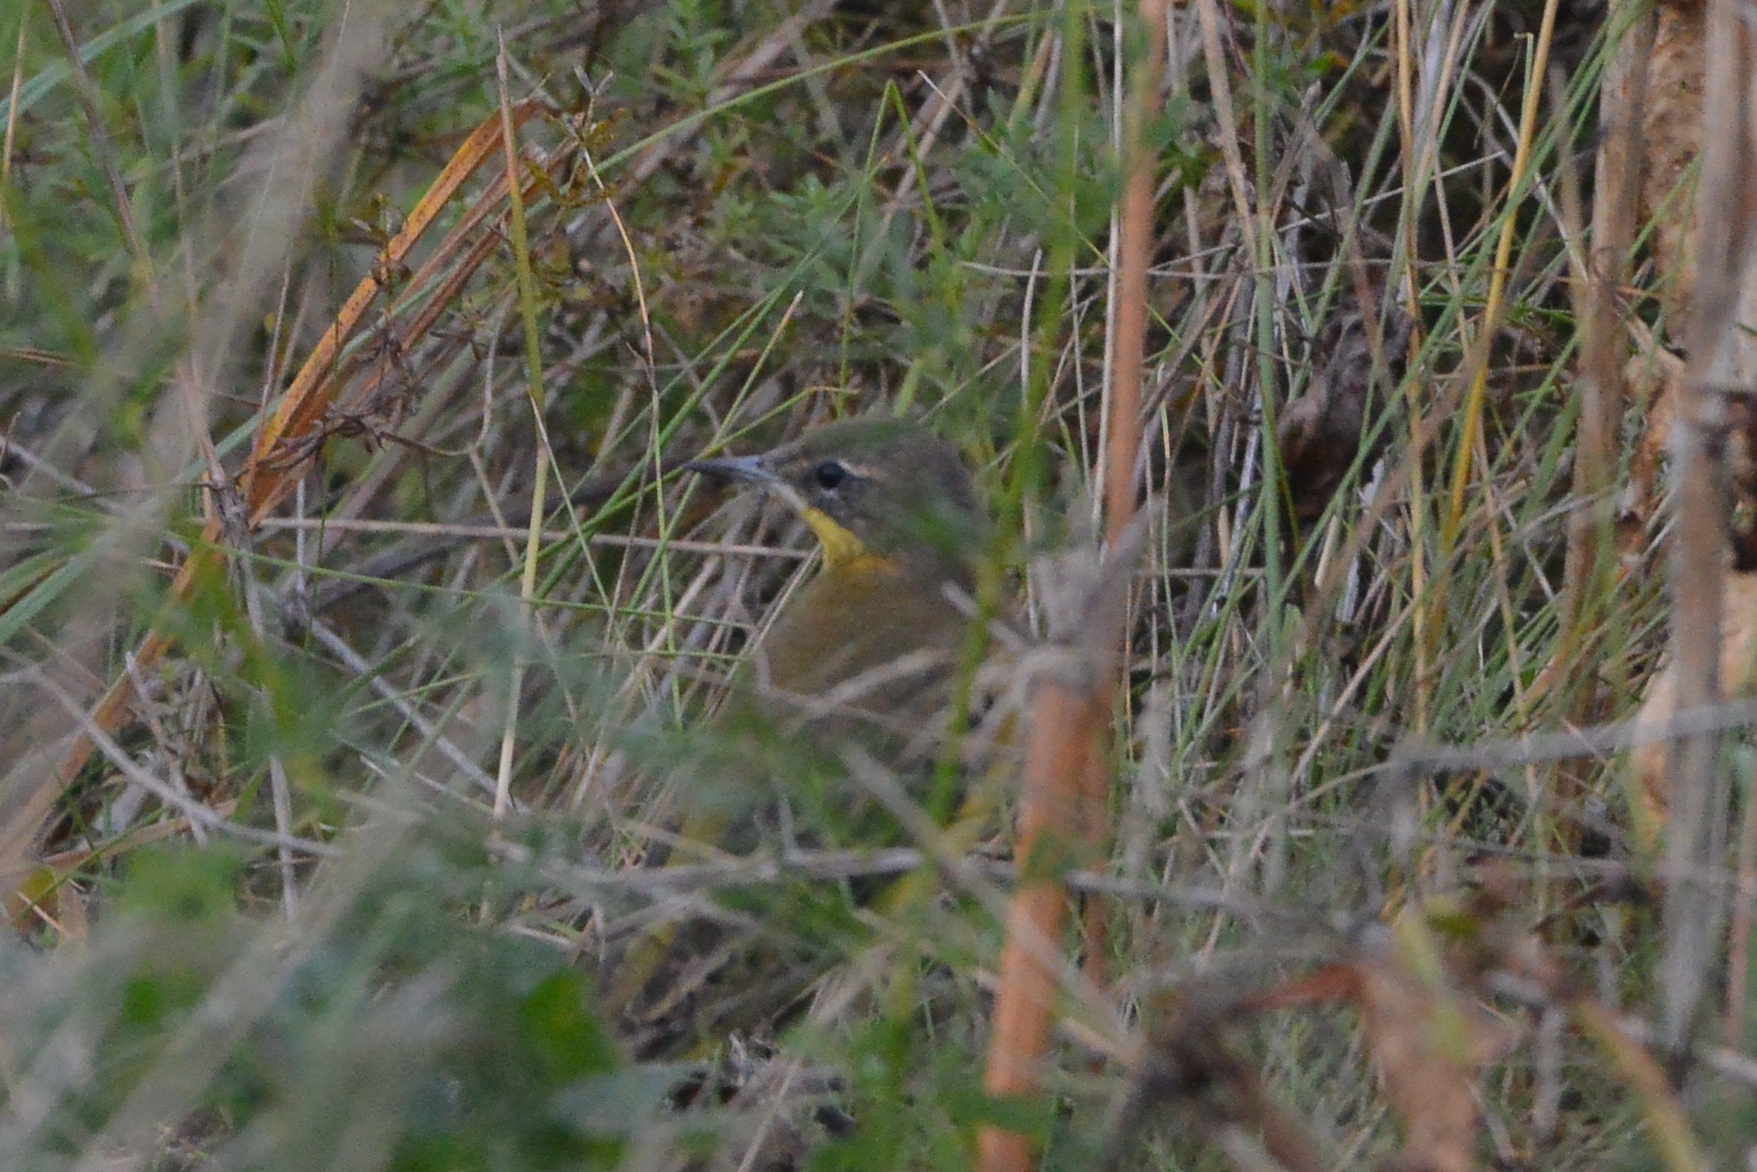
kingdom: Animalia
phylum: Chordata
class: Aves
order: Passeriformes
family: Motacillidae
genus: Motacilla
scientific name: Motacilla flava
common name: Western yellow wagtail
